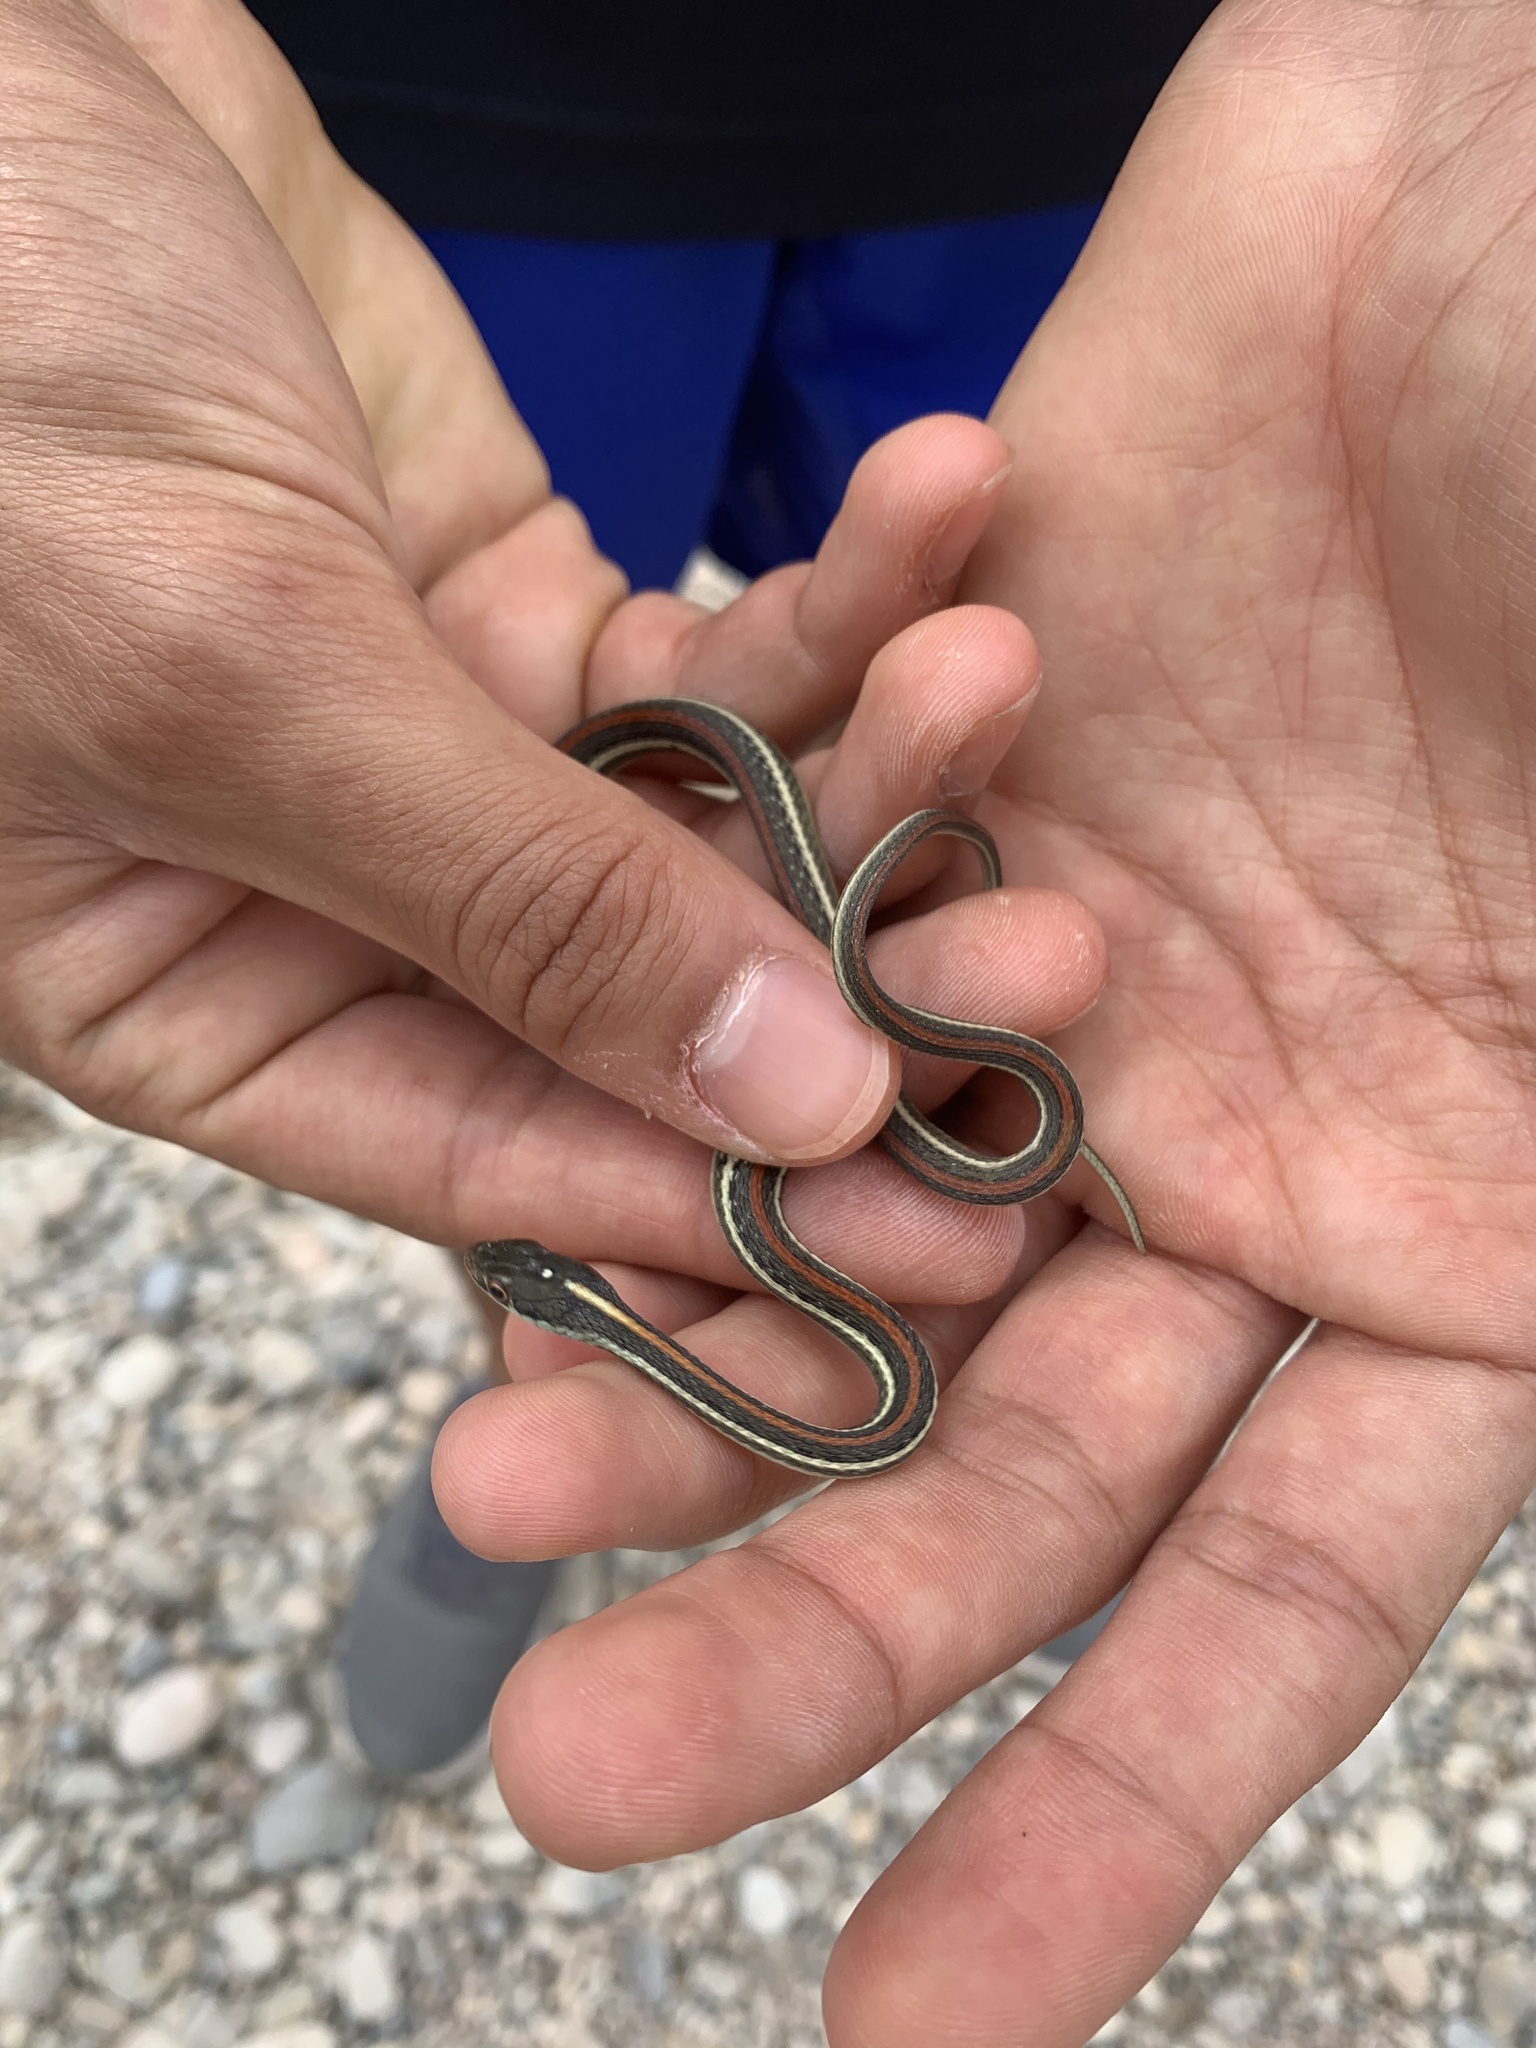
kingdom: Animalia
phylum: Chordata
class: Squamata
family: Colubridae
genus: Thamnophis
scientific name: Thamnophis proximus
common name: Western ribbon snake
